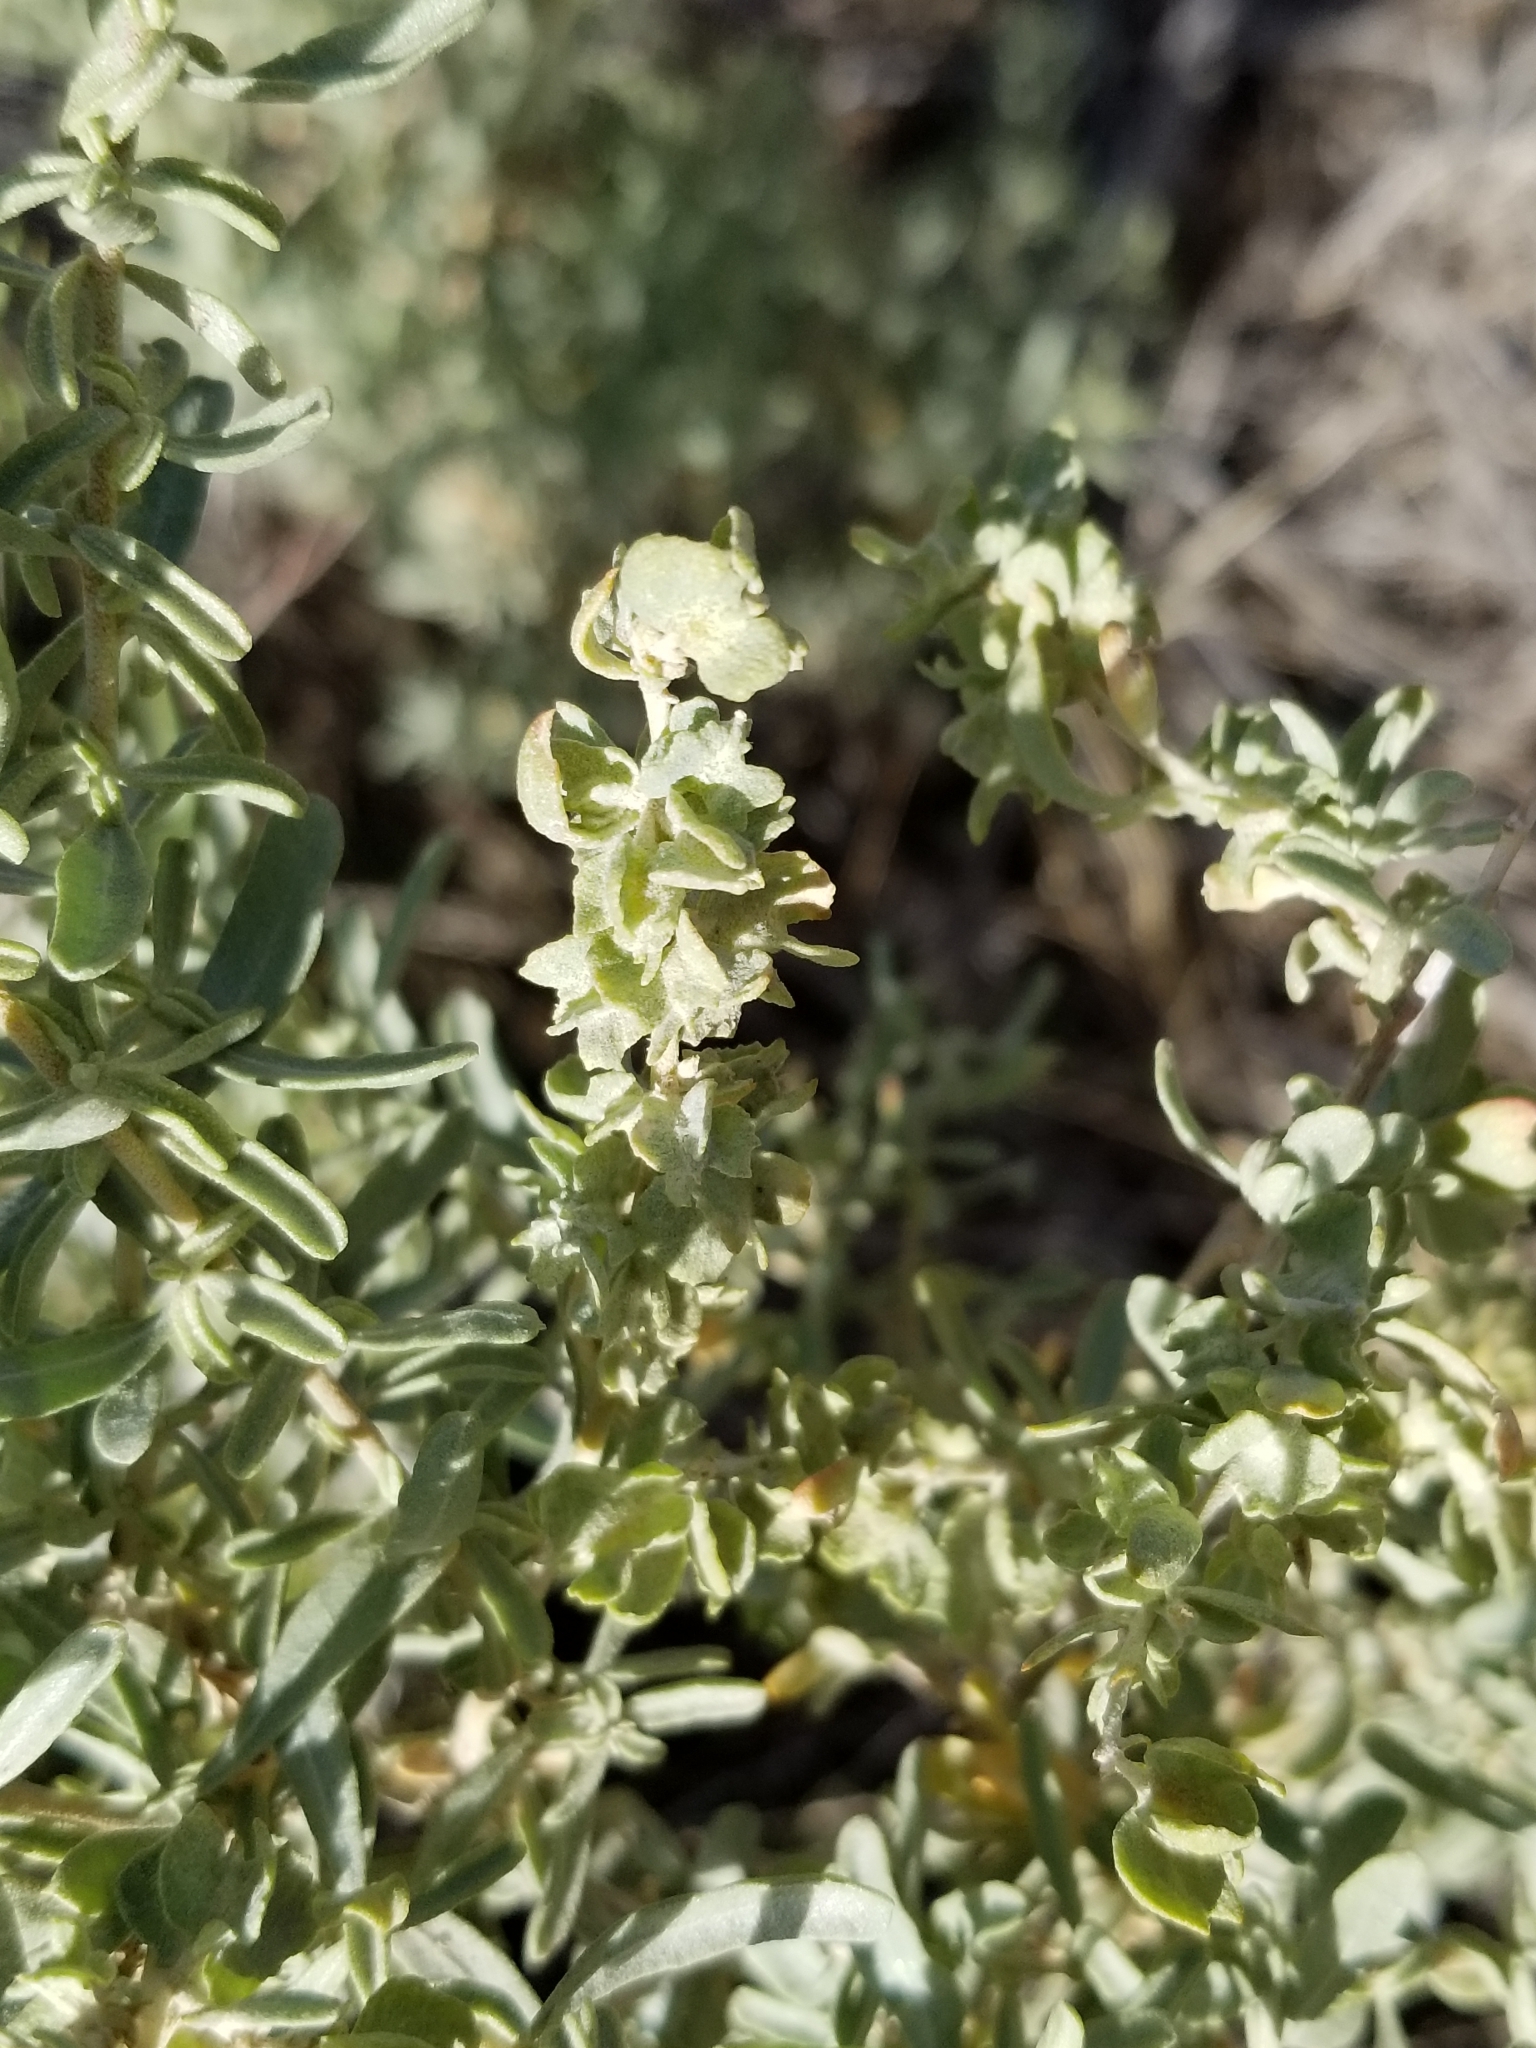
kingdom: Plantae
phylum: Tracheophyta
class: Magnoliopsida
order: Caryophyllales
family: Amaranthaceae
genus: Atriplex
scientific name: Atriplex canescens
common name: Four-wing saltbush
